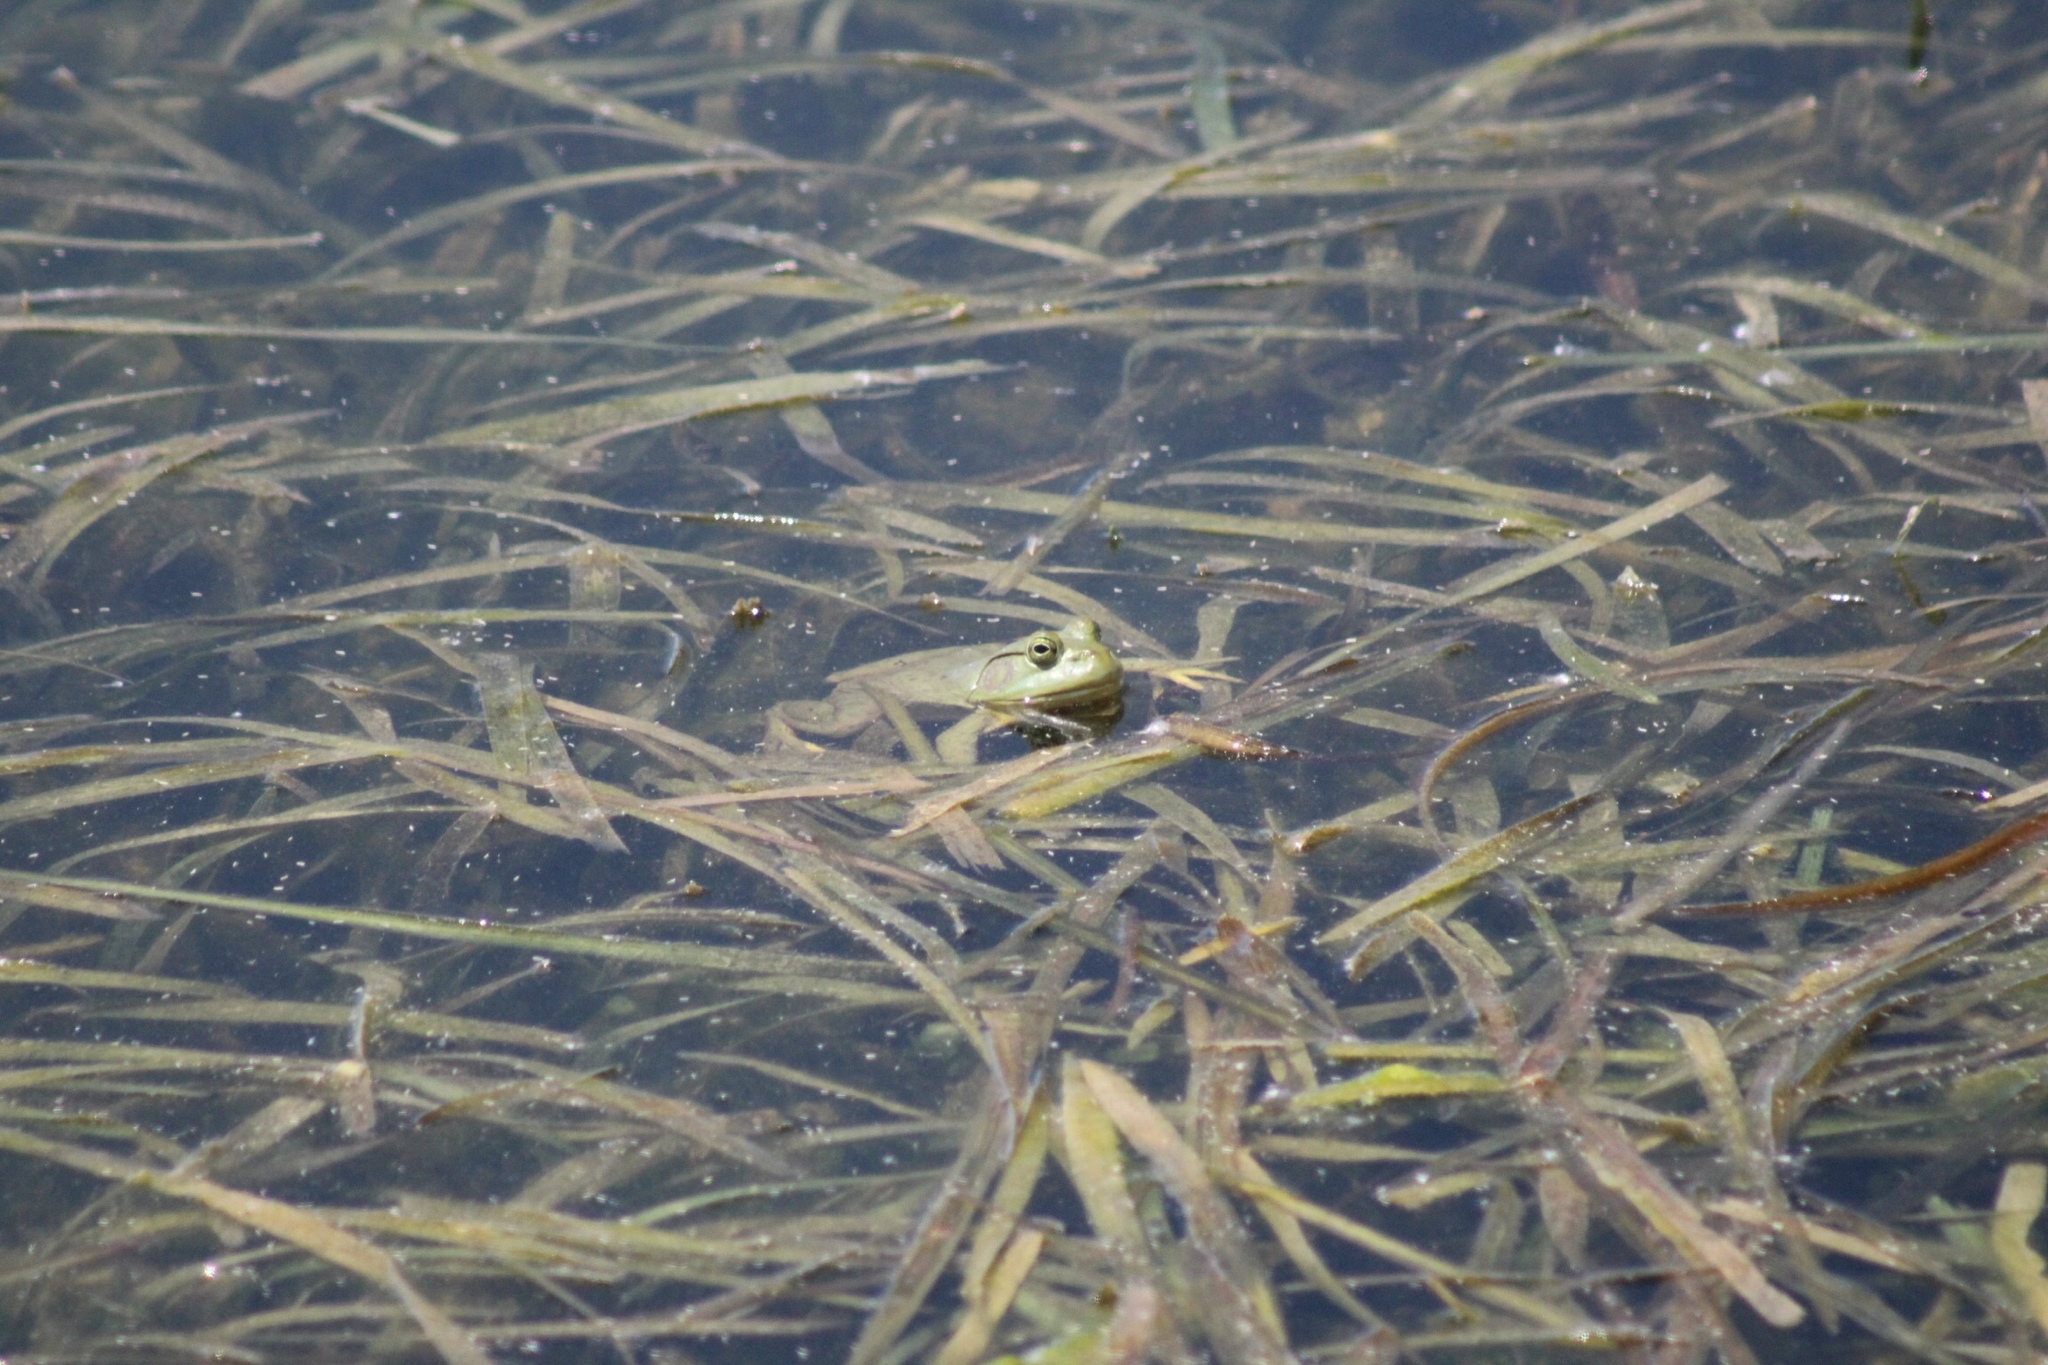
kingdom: Animalia
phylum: Chordata
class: Amphibia
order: Anura
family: Ranidae
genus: Lithobates
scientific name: Lithobates catesbeianus
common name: American bullfrog
